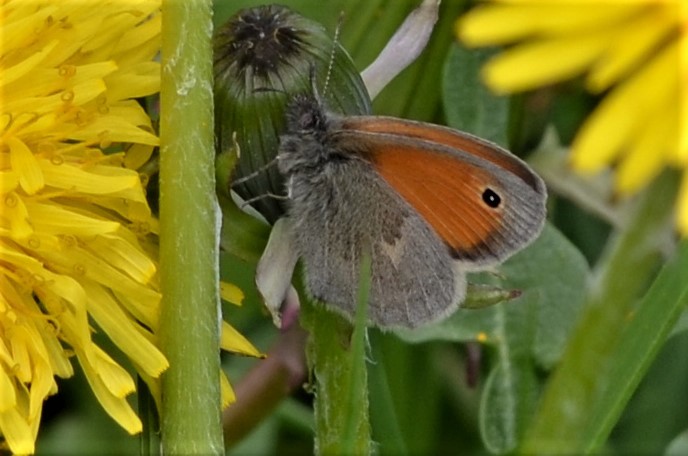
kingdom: Animalia
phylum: Arthropoda
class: Insecta
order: Lepidoptera
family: Nymphalidae
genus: Coenonympha
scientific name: Coenonympha pamphilus
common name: Small heath
